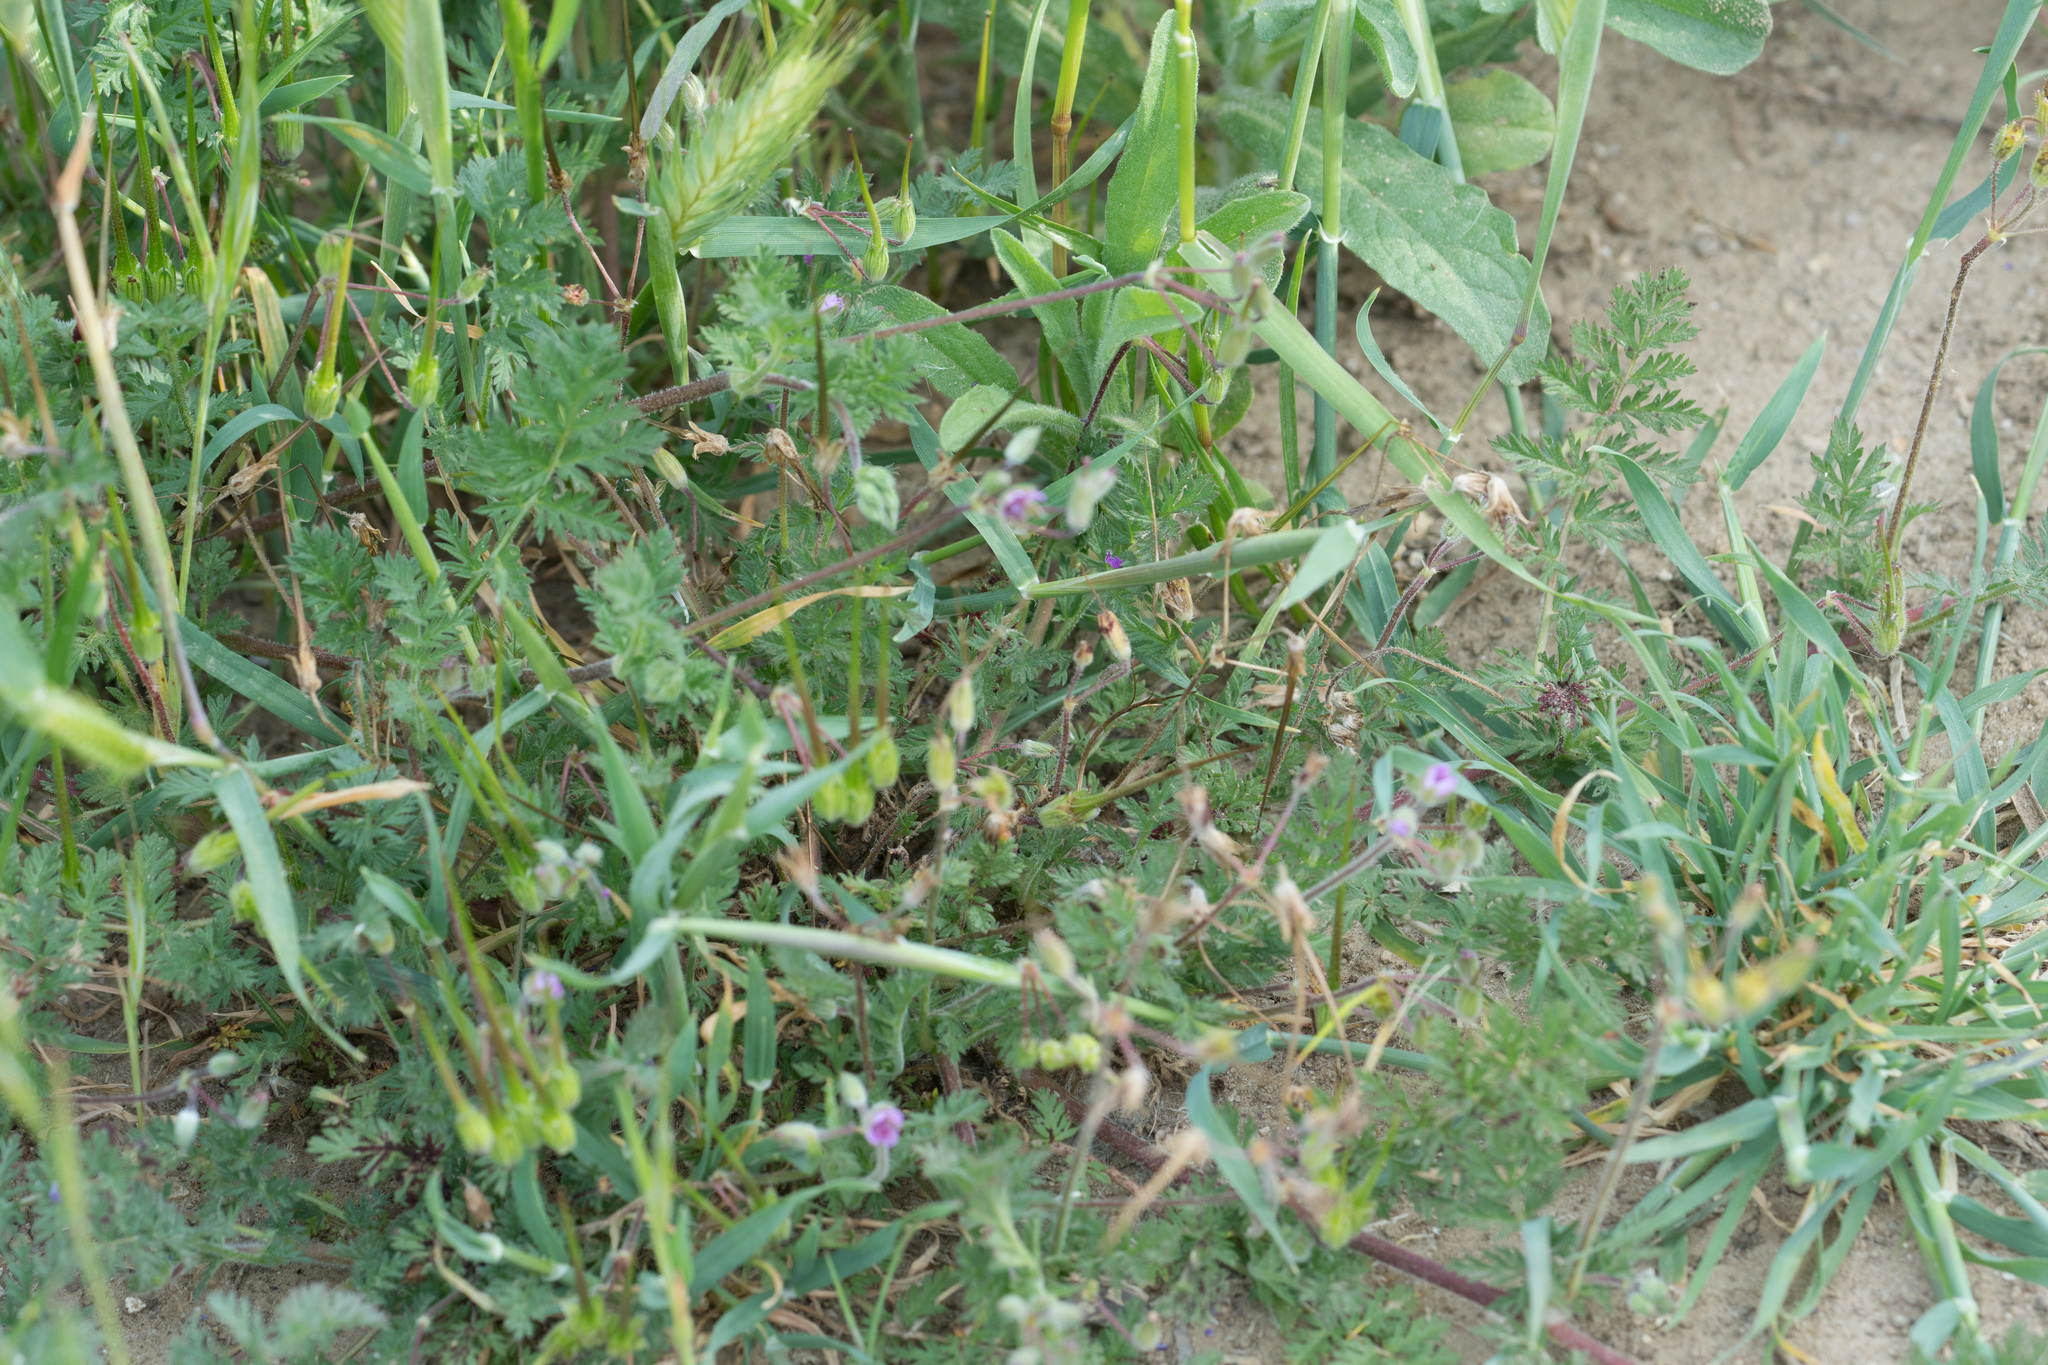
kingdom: Plantae
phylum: Tracheophyta
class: Magnoliopsida
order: Geraniales
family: Geraniaceae
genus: Erodium
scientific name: Erodium cicutarium
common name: Common stork's-bill
